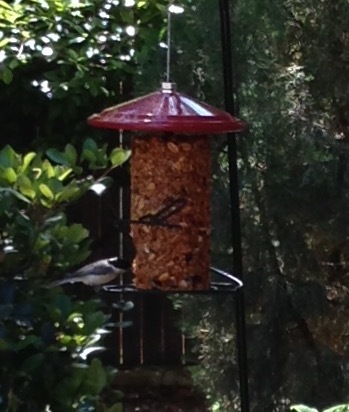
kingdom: Animalia
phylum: Chordata
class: Aves
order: Passeriformes
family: Paridae
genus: Poecile
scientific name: Poecile carolinensis
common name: Carolina chickadee
